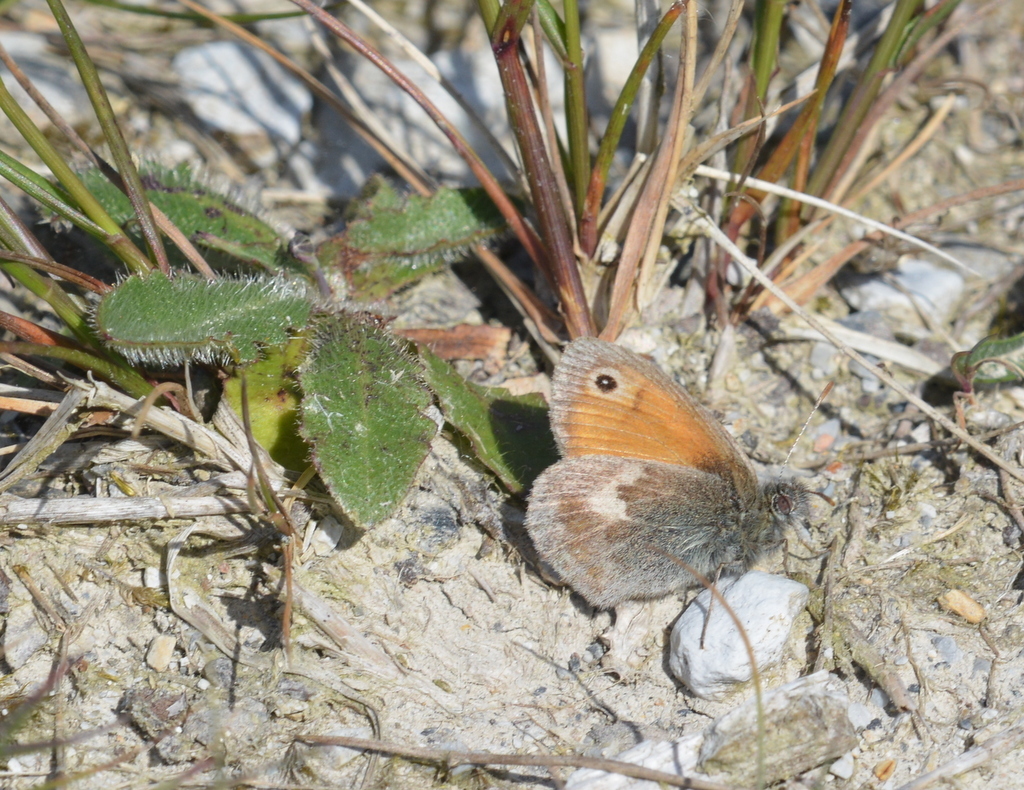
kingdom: Animalia
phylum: Arthropoda
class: Insecta
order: Lepidoptera
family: Nymphalidae
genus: Coenonympha
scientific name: Coenonympha pamphilus
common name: Small heath
